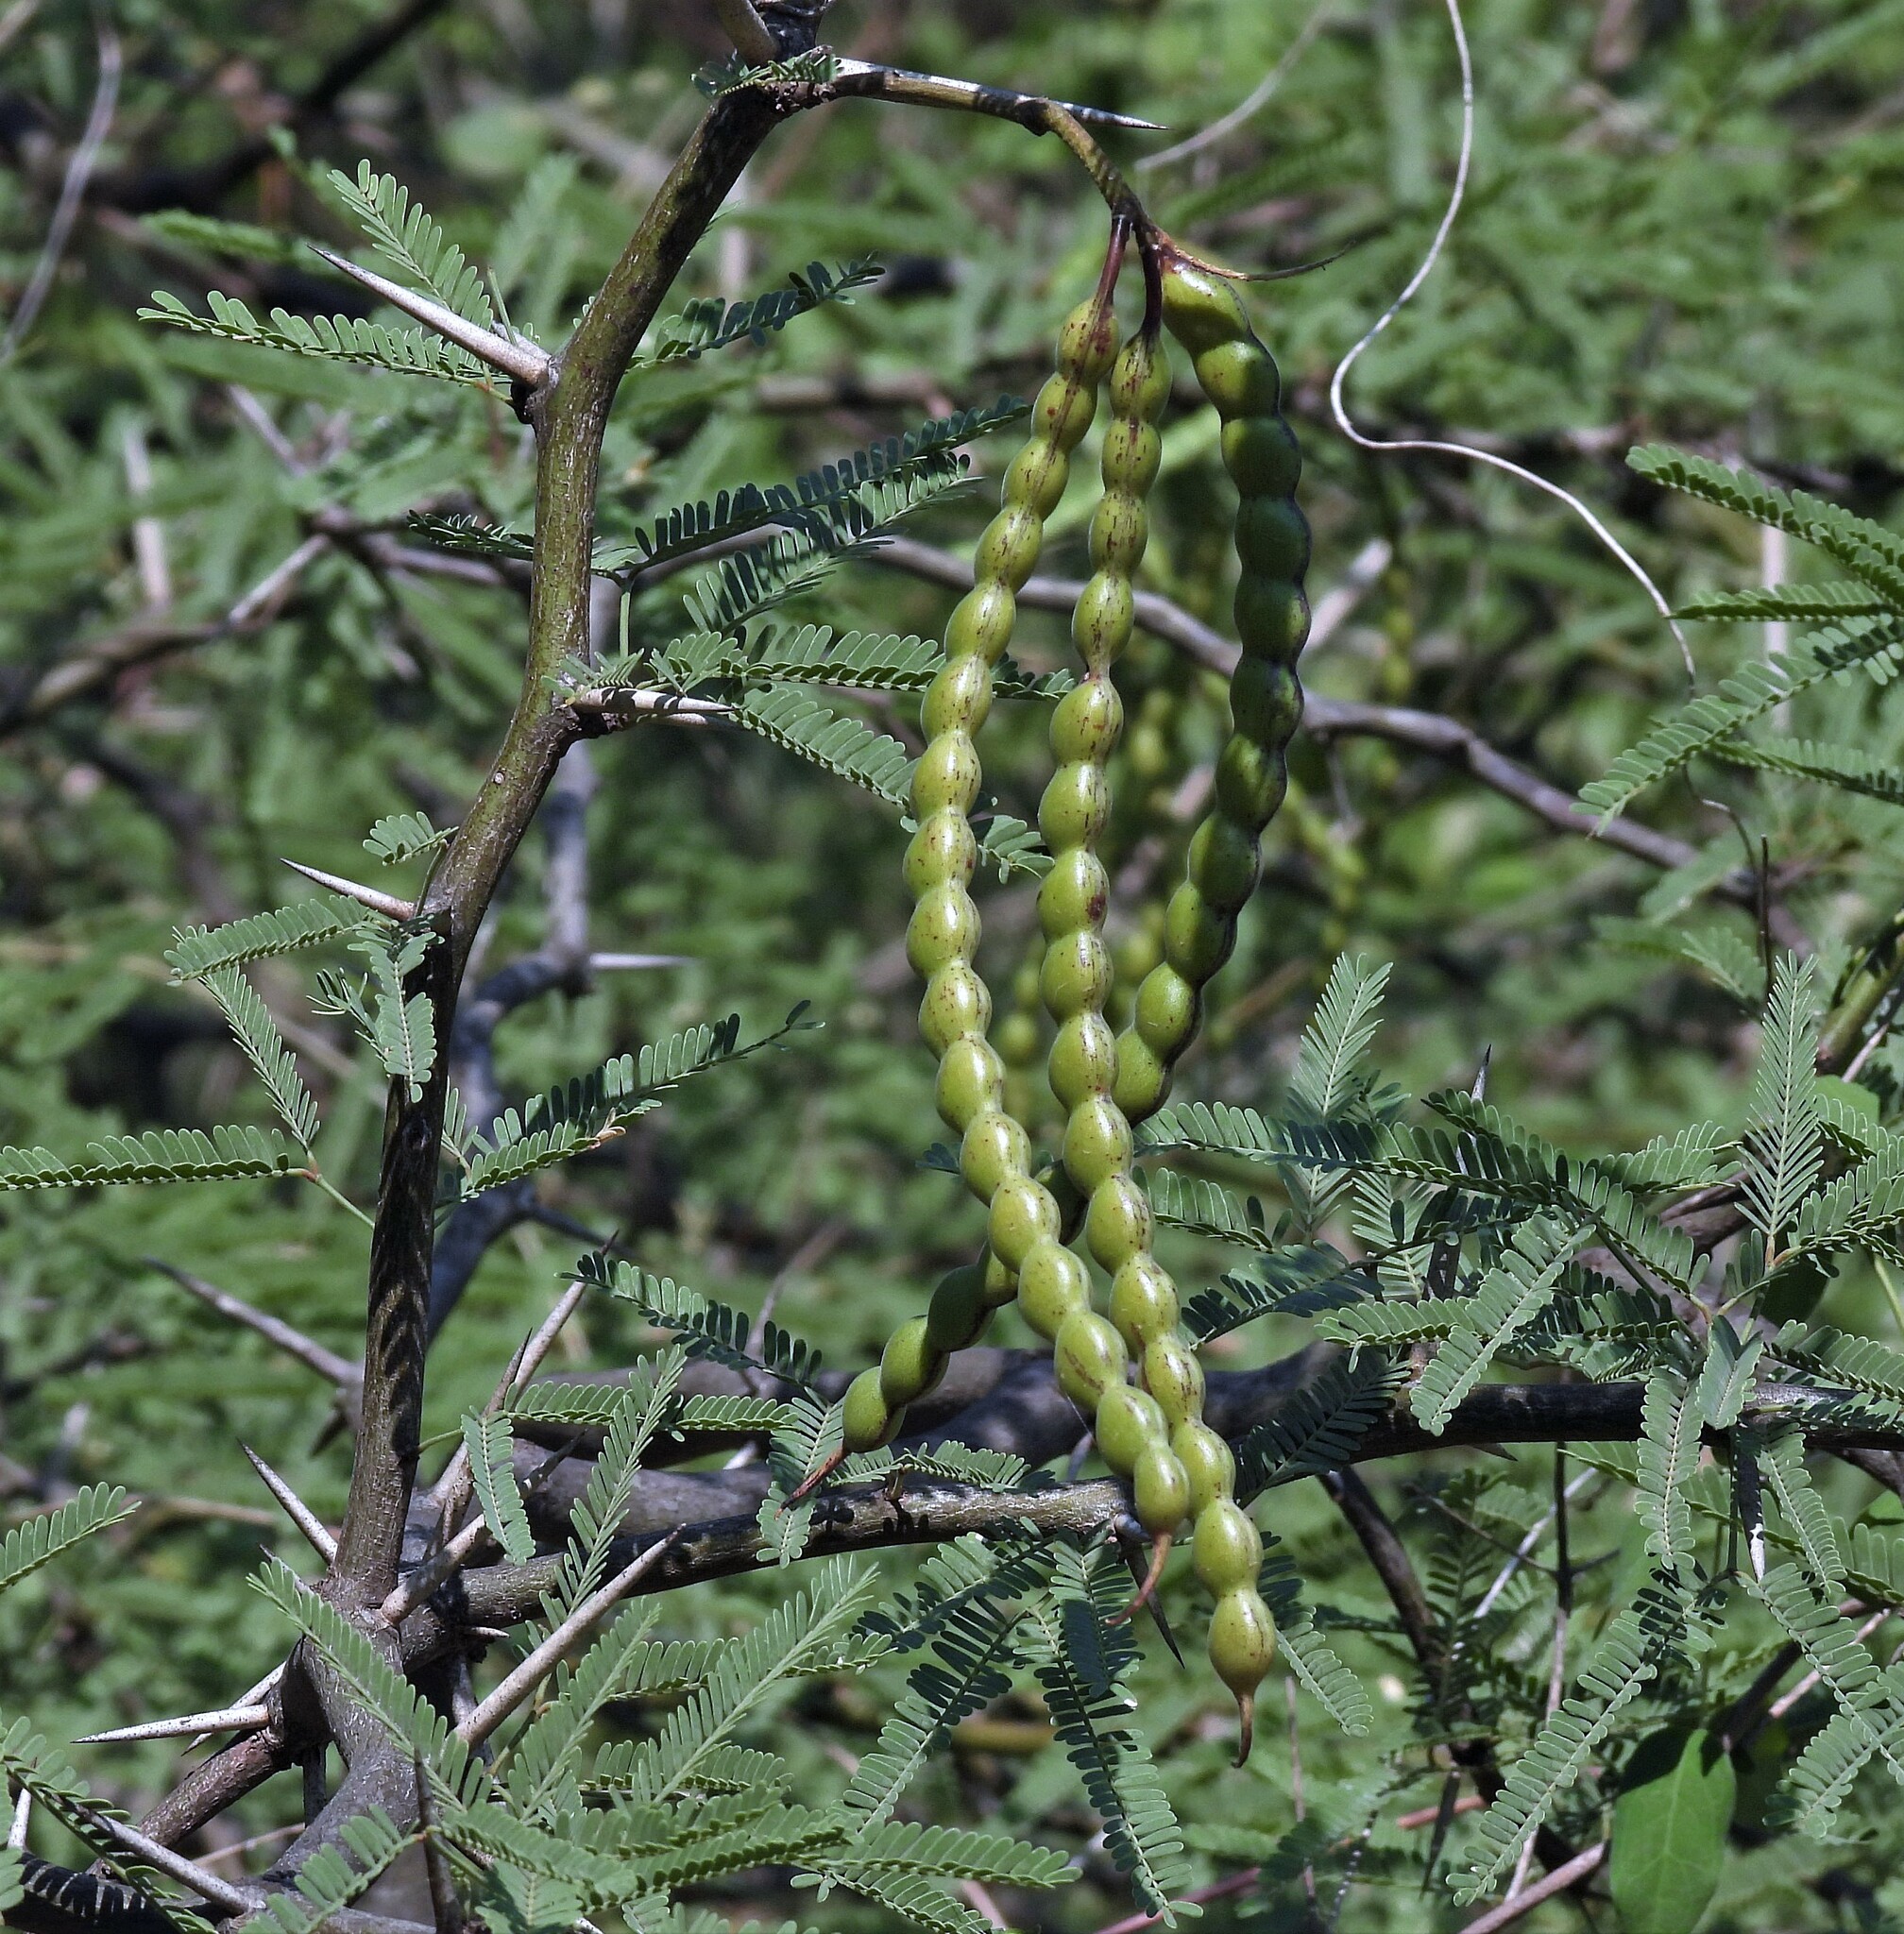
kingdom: Plantae
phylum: Tracheophyta
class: Magnoliopsida
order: Fabales
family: Fabaceae
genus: Prosopis
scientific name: Prosopis nigra
